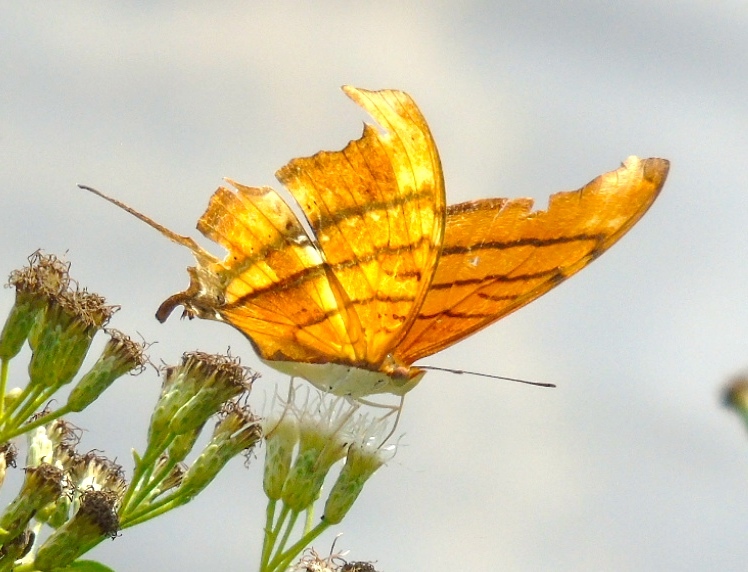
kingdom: Animalia
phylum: Arthropoda
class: Insecta
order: Lepidoptera
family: Nymphalidae
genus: Marpesia
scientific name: Marpesia petreus
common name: Red dagger wing
